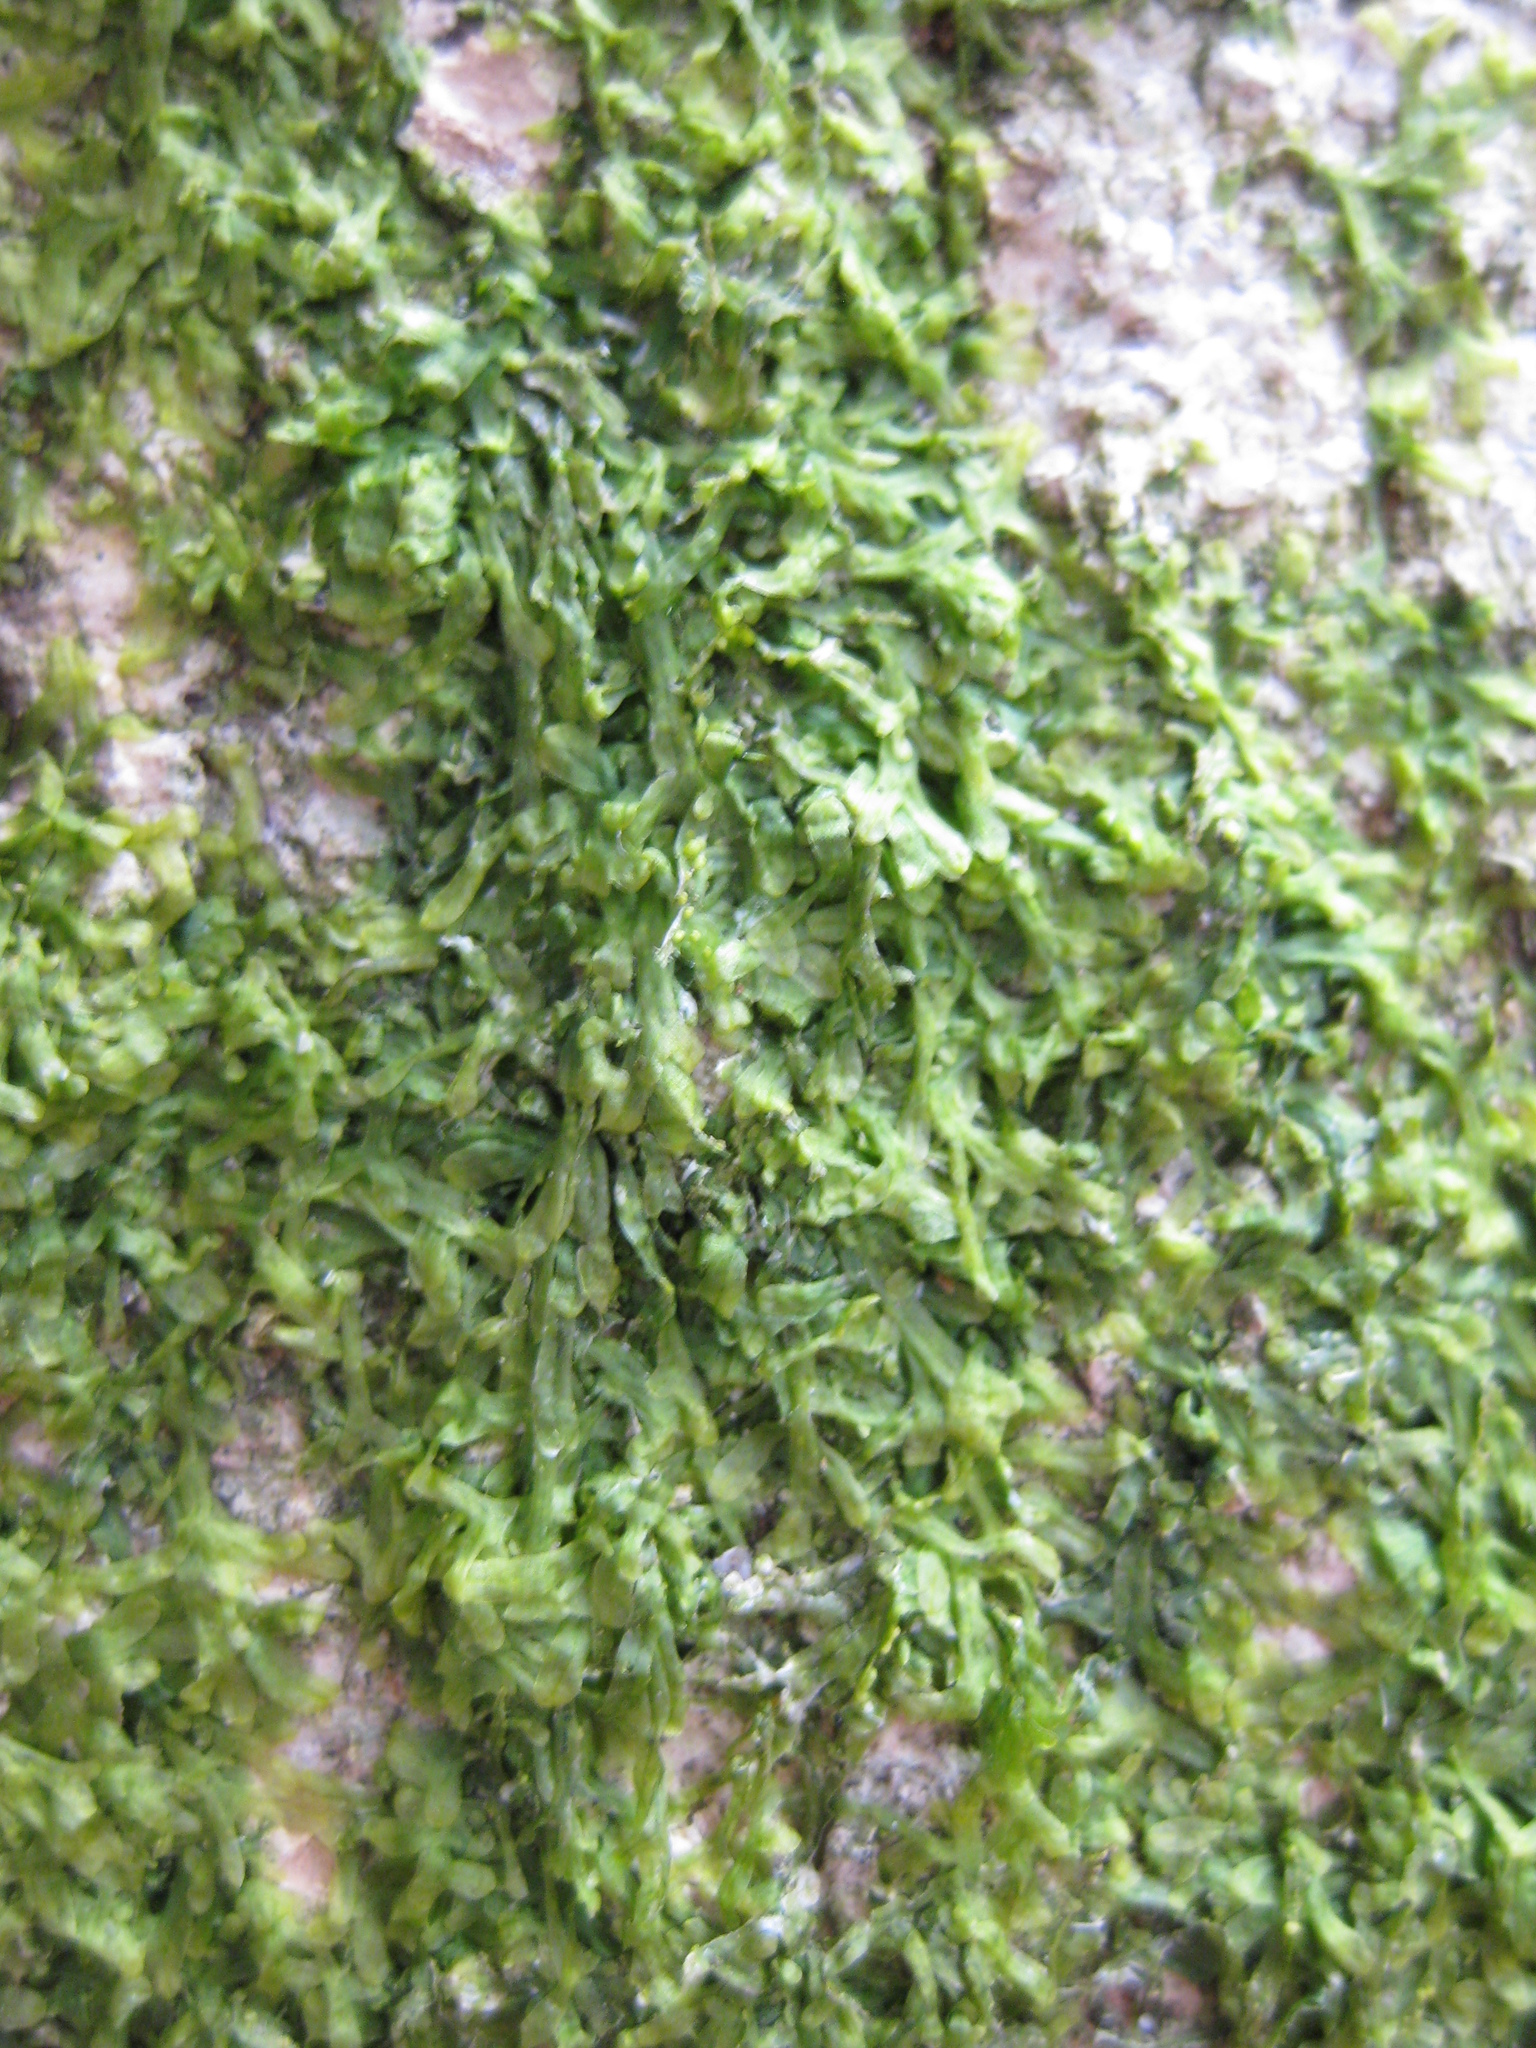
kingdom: Plantae
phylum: Marchantiophyta
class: Jungermanniopsida
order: Metzgeriales
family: Metzgeriaceae
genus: Metzgeria
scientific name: Metzgeria furcata
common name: Forked veilwort
